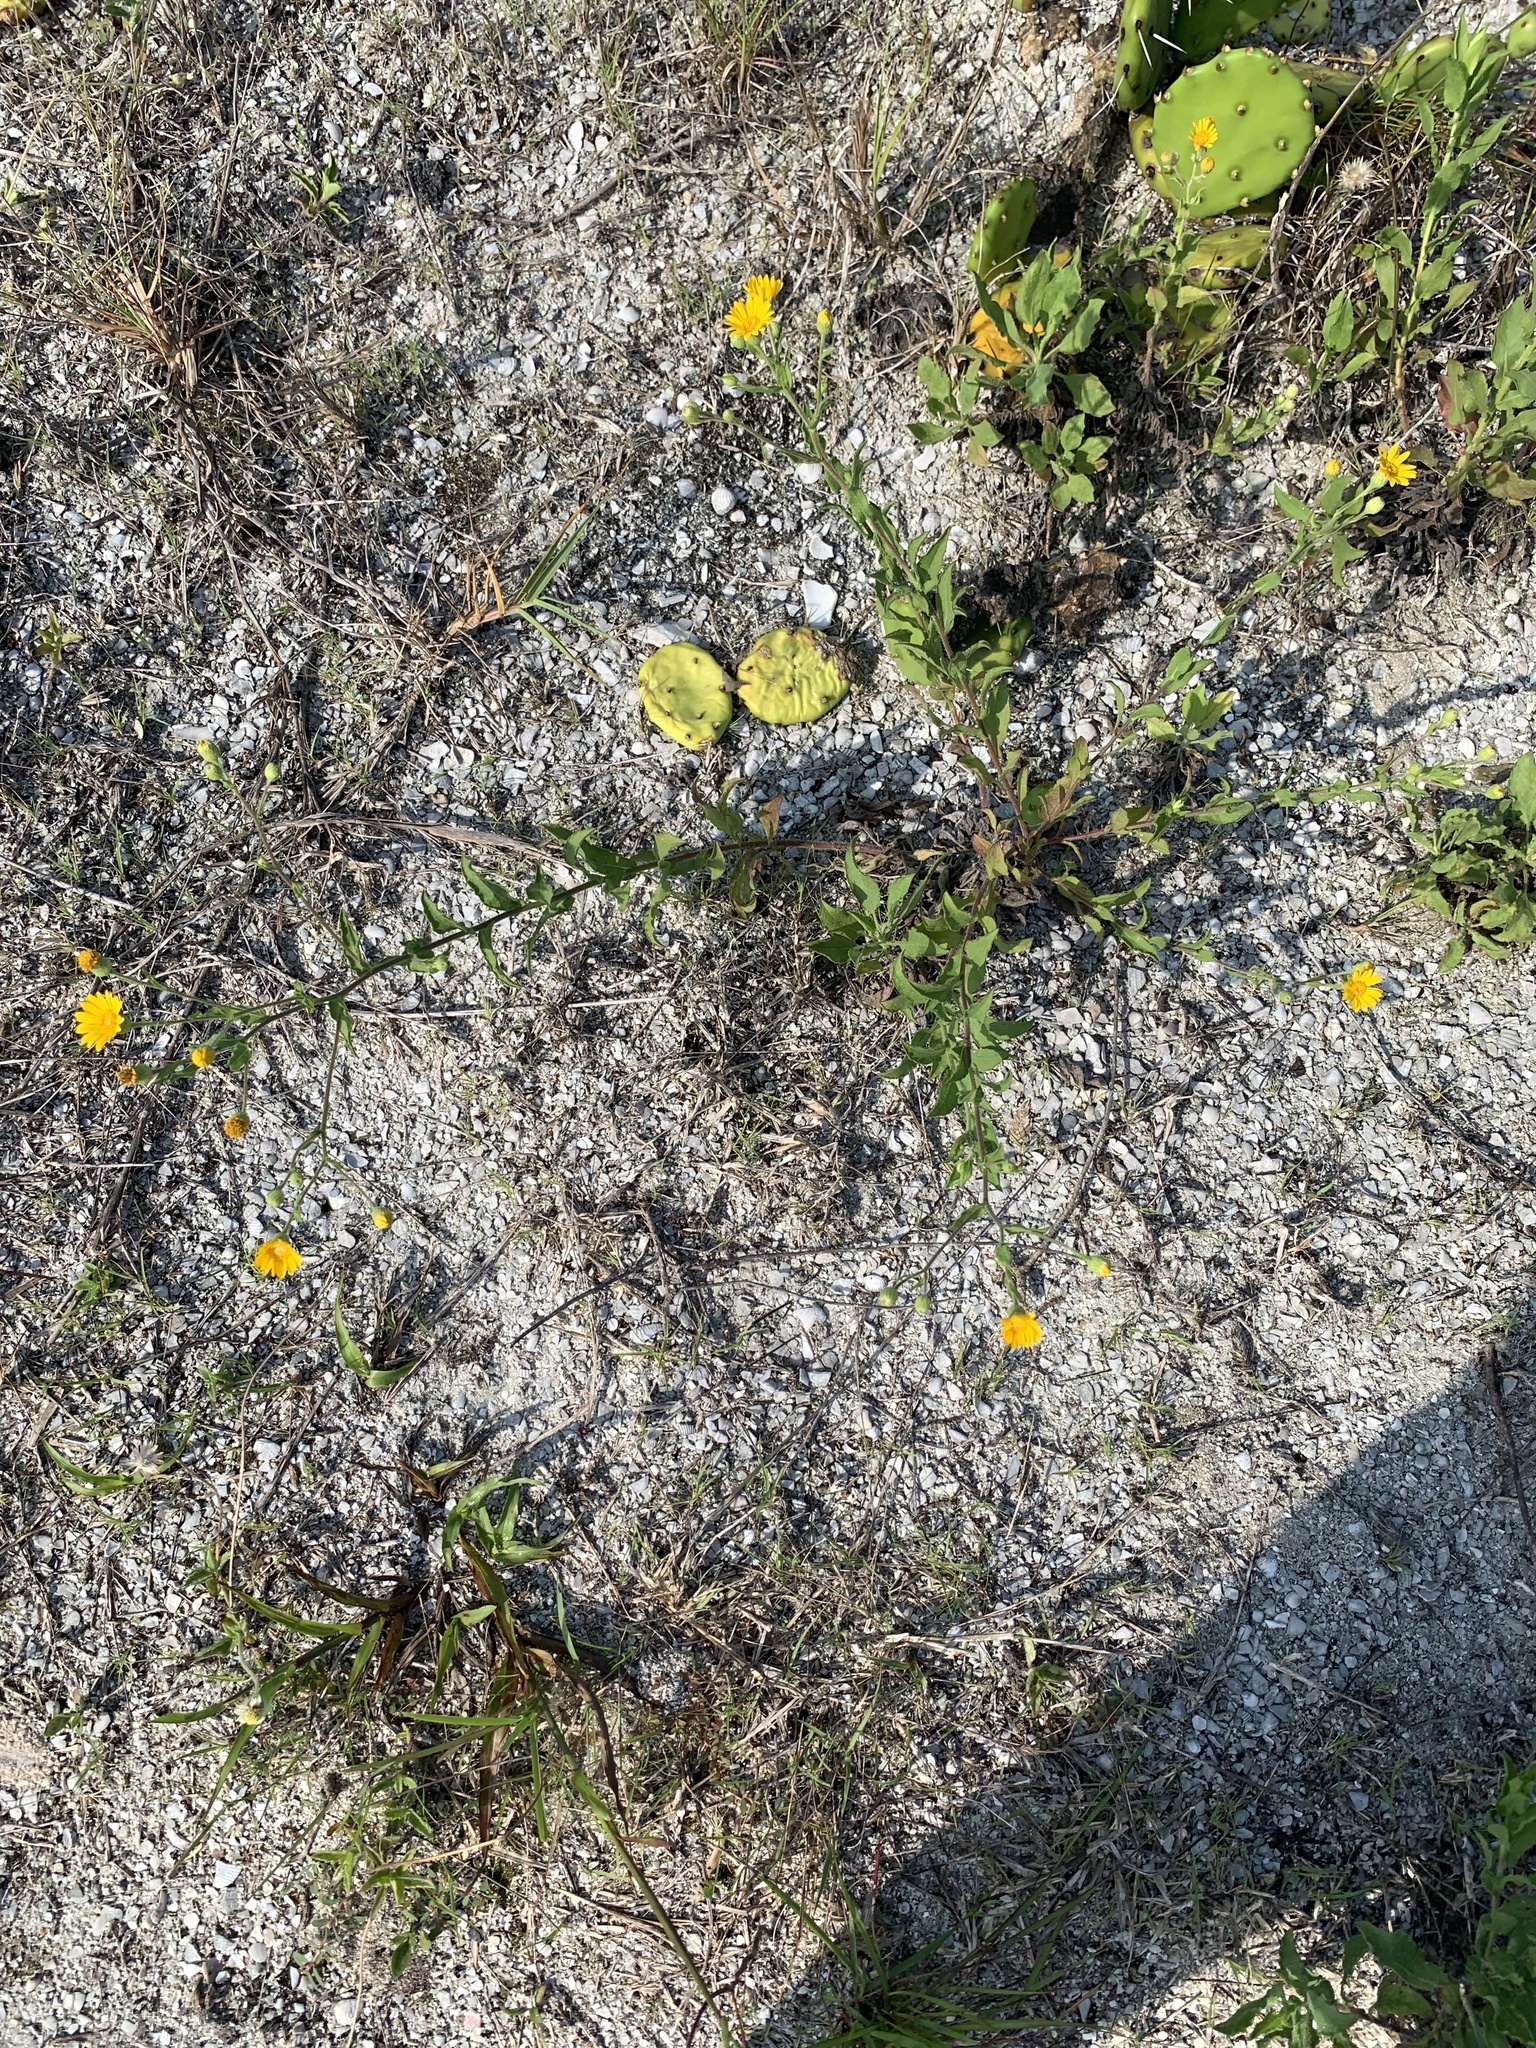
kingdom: Plantae
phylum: Tracheophyta
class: Magnoliopsida
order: Asterales
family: Asteraceae
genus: Heterotheca
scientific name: Heterotheca subaxillaris
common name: Camphorweed
